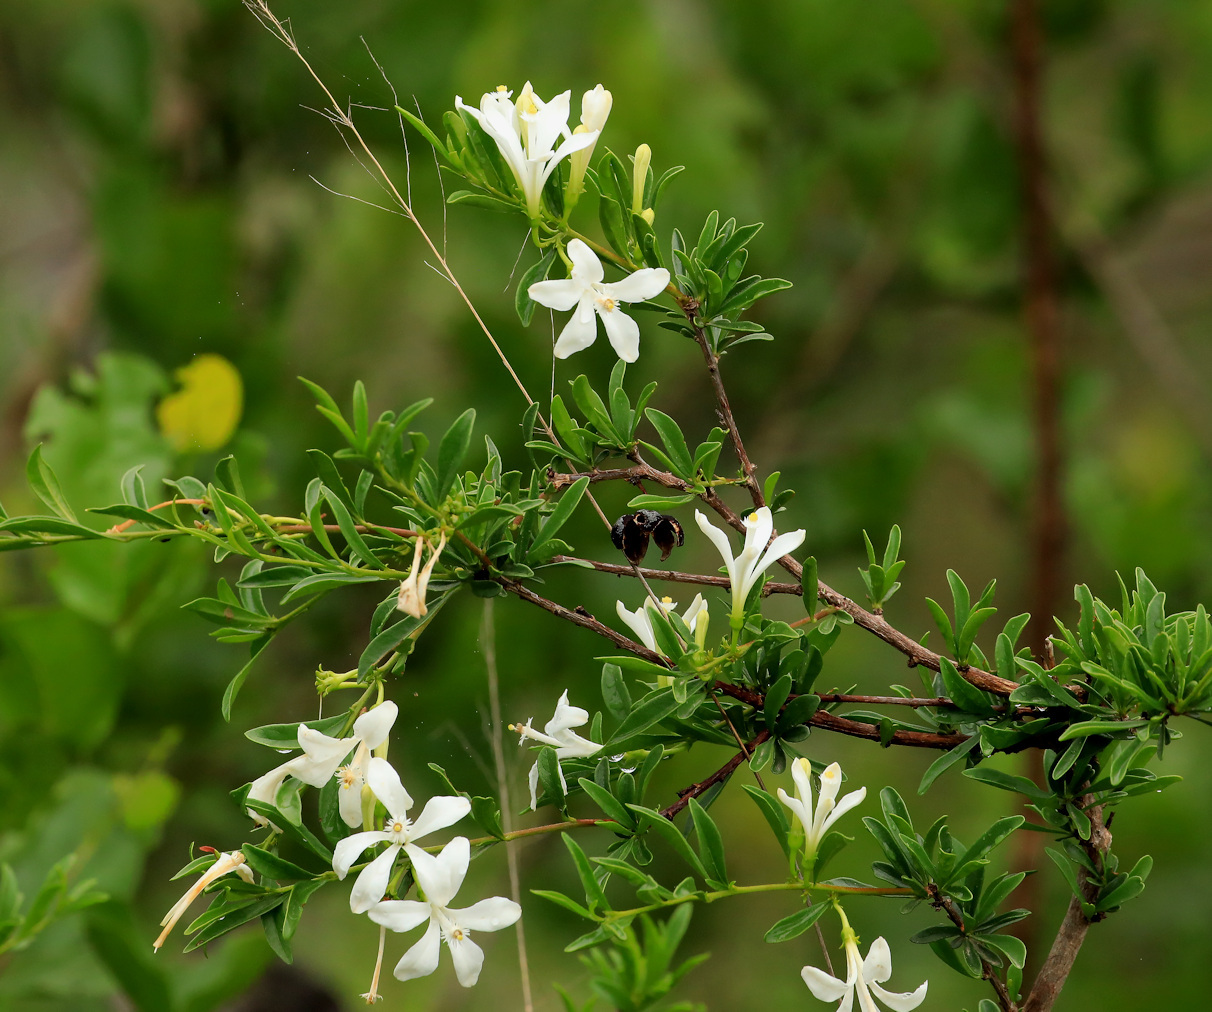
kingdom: Plantae
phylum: Tracheophyta
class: Magnoliopsida
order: Sapindales
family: Meliaceae
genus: Turraea
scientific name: Turraea obtusifolia
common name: Small honeysuckle tree
